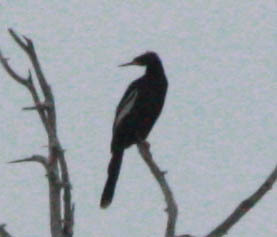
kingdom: Animalia
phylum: Chordata
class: Aves
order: Suliformes
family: Anhingidae
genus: Anhinga
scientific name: Anhinga anhinga
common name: Anhinga
